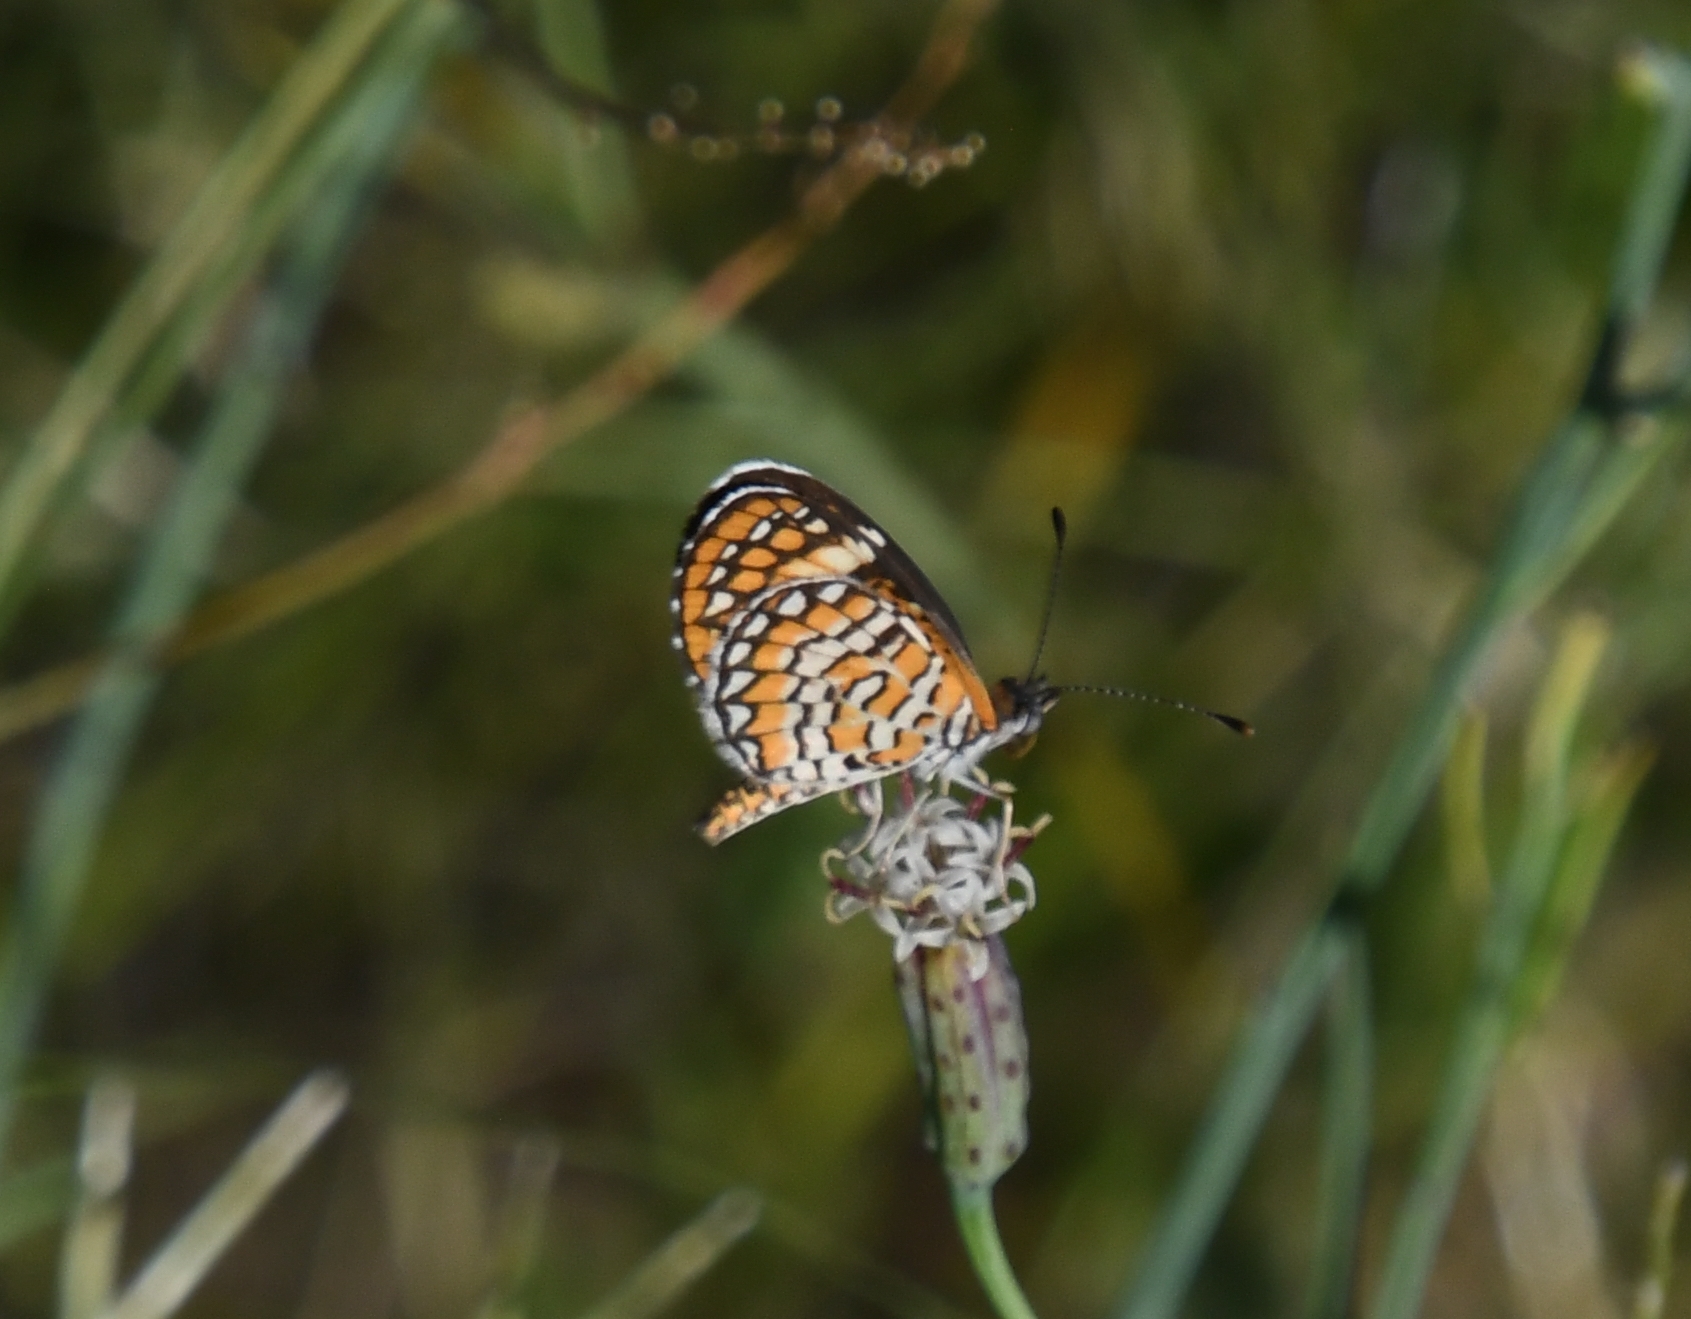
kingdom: Animalia
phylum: Arthropoda
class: Insecta
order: Lepidoptera
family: Nymphalidae
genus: Dymasia
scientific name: Dymasia dymas
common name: Tiny checkerspot
